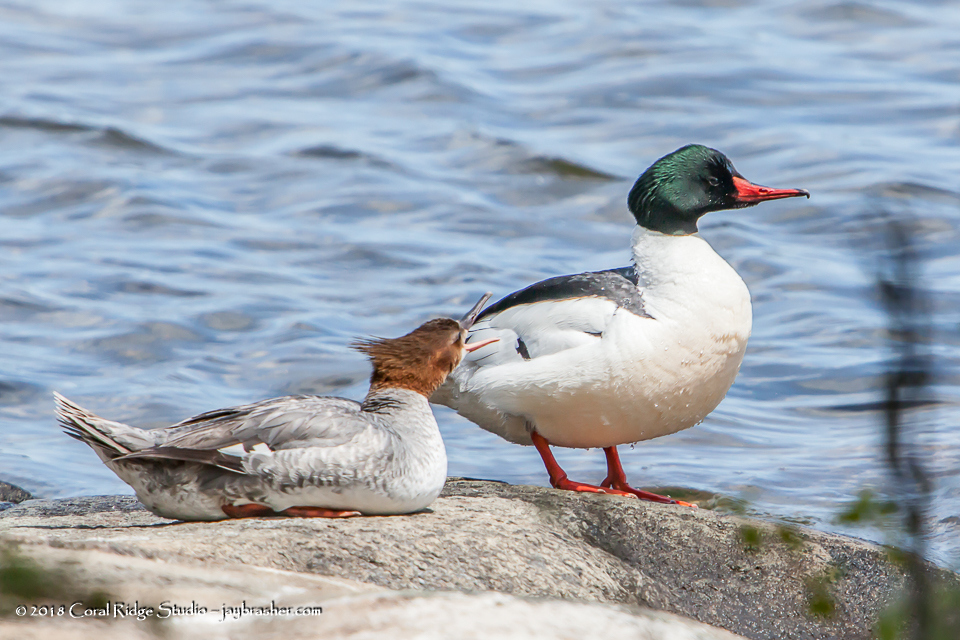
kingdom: Animalia
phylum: Chordata
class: Aves
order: Anseriformes
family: Anatidae
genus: Mergus
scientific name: Mergus merganser
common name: Common merganser
